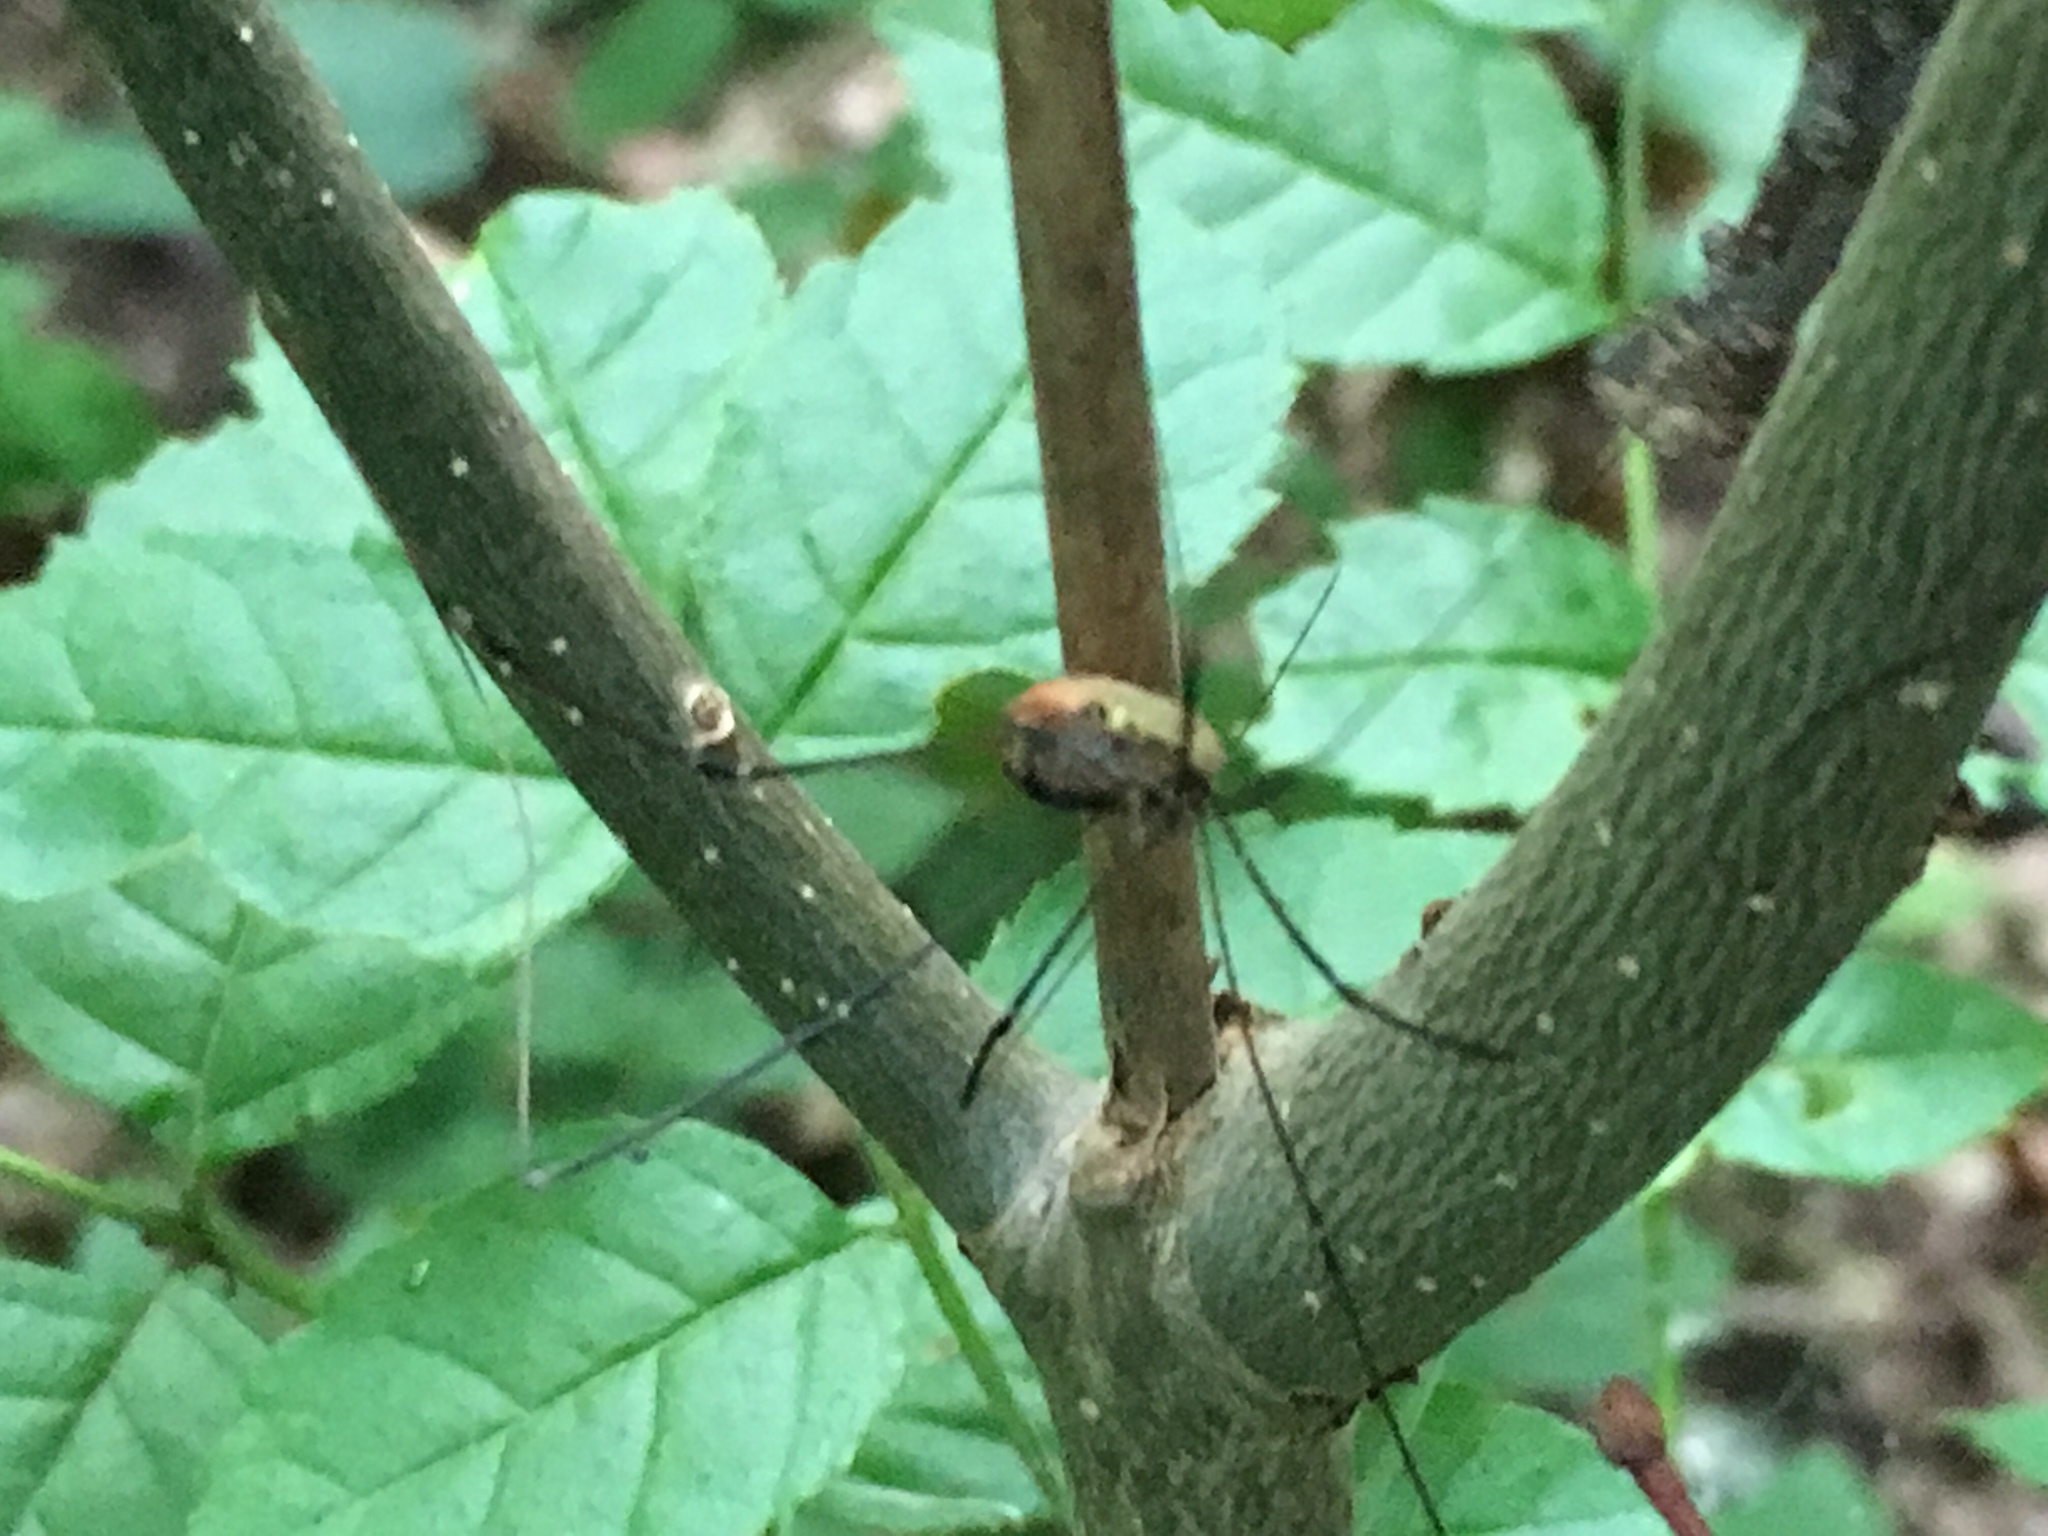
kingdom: Animalia
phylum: Arthropoda
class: Arachnida
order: Opiliones
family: Sclerosomatidae
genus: Leiobunum
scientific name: Leiobunum rotundum
